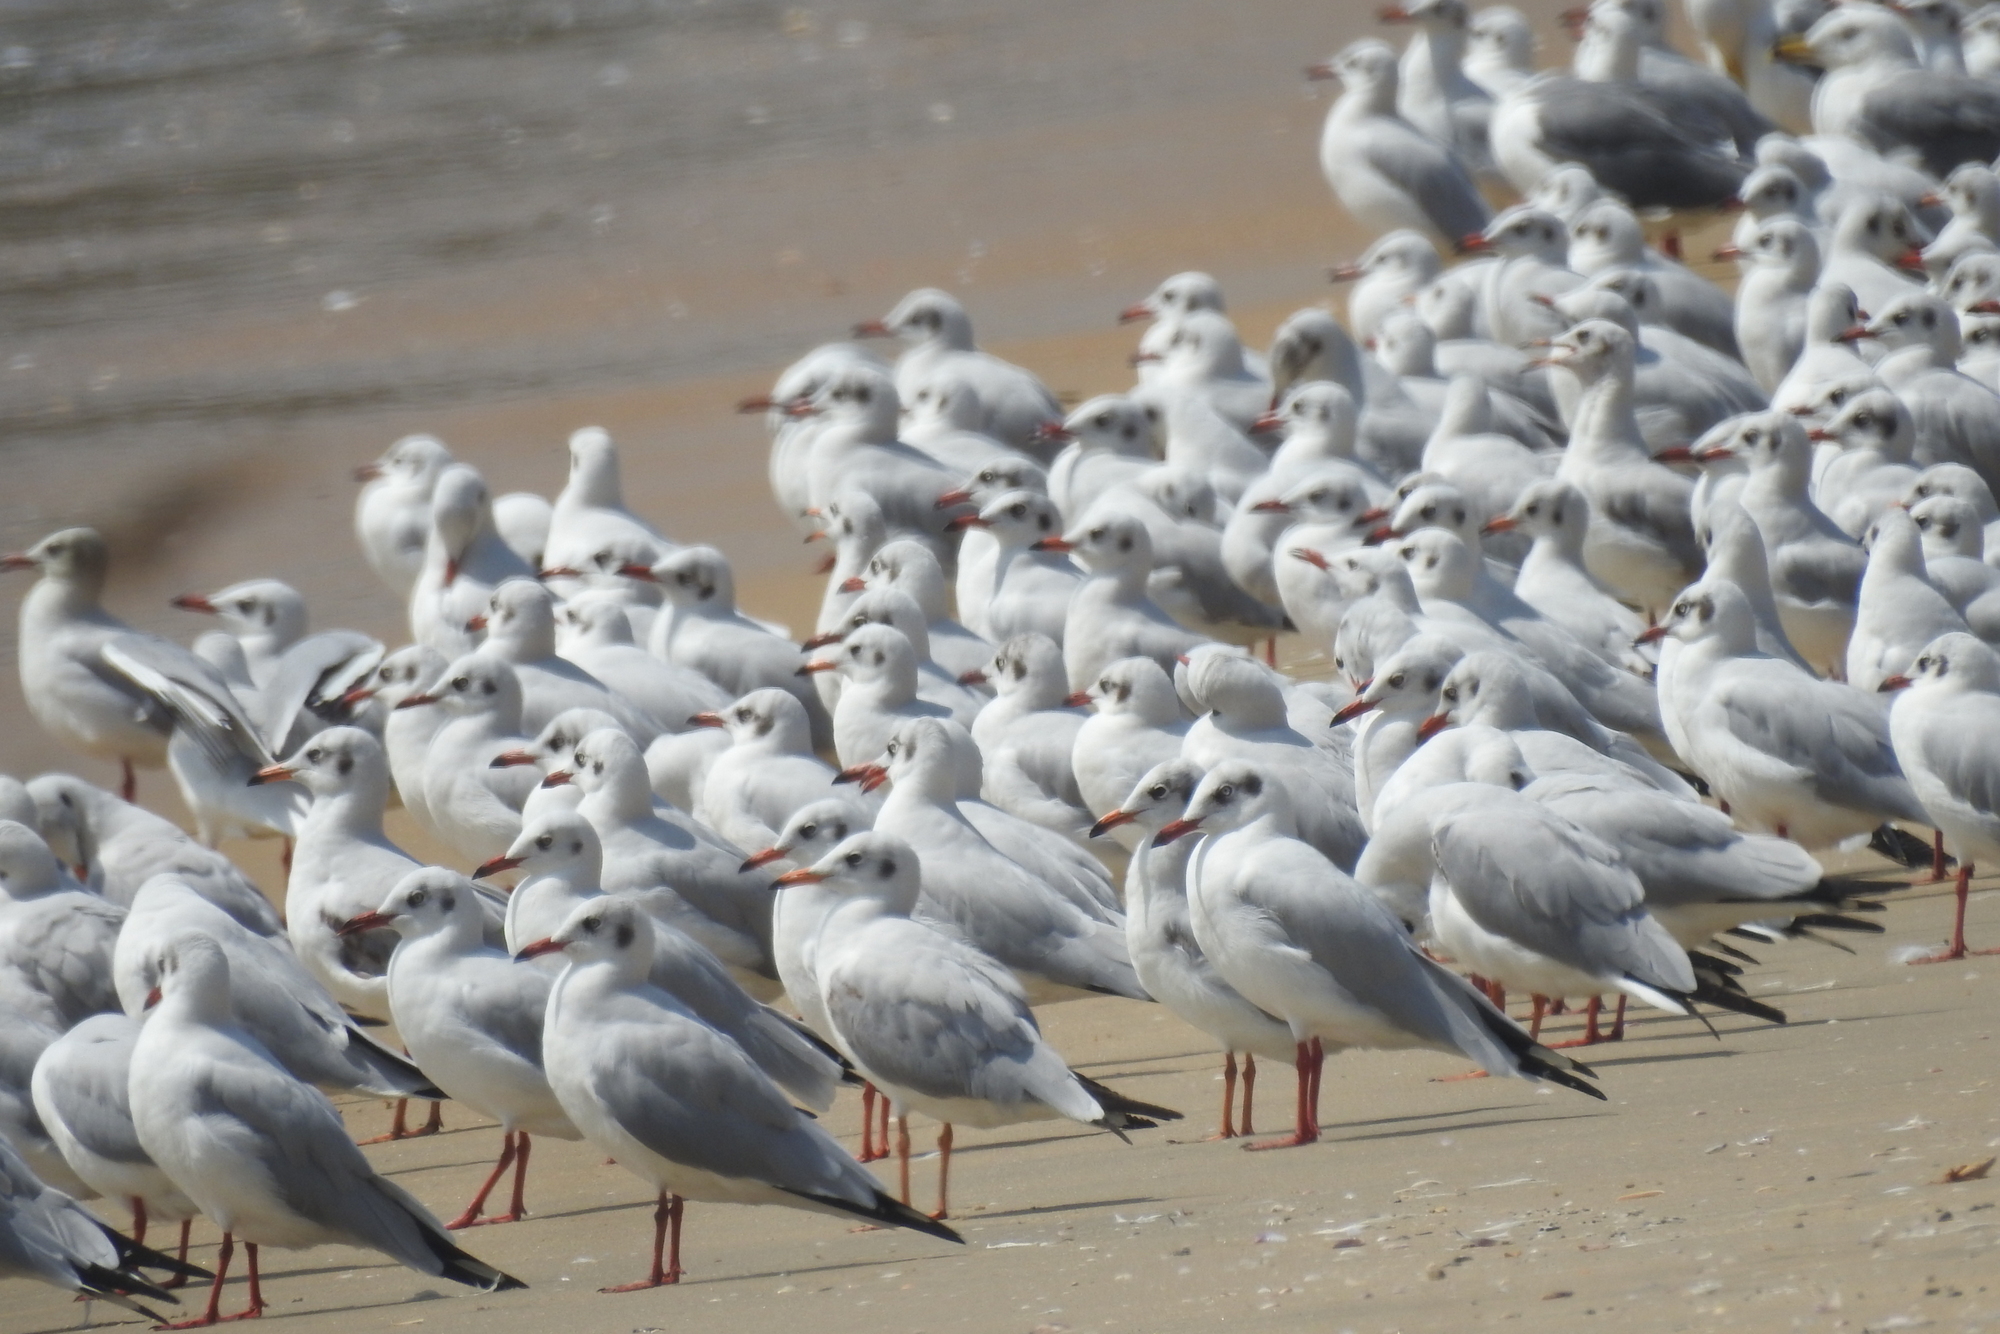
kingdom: Animalia
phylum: Chordata
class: Aves
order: Charadriiformes
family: Laridae
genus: Chroicocephalus
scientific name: Chroicocephalus ridibundus
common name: Black-headed gull
